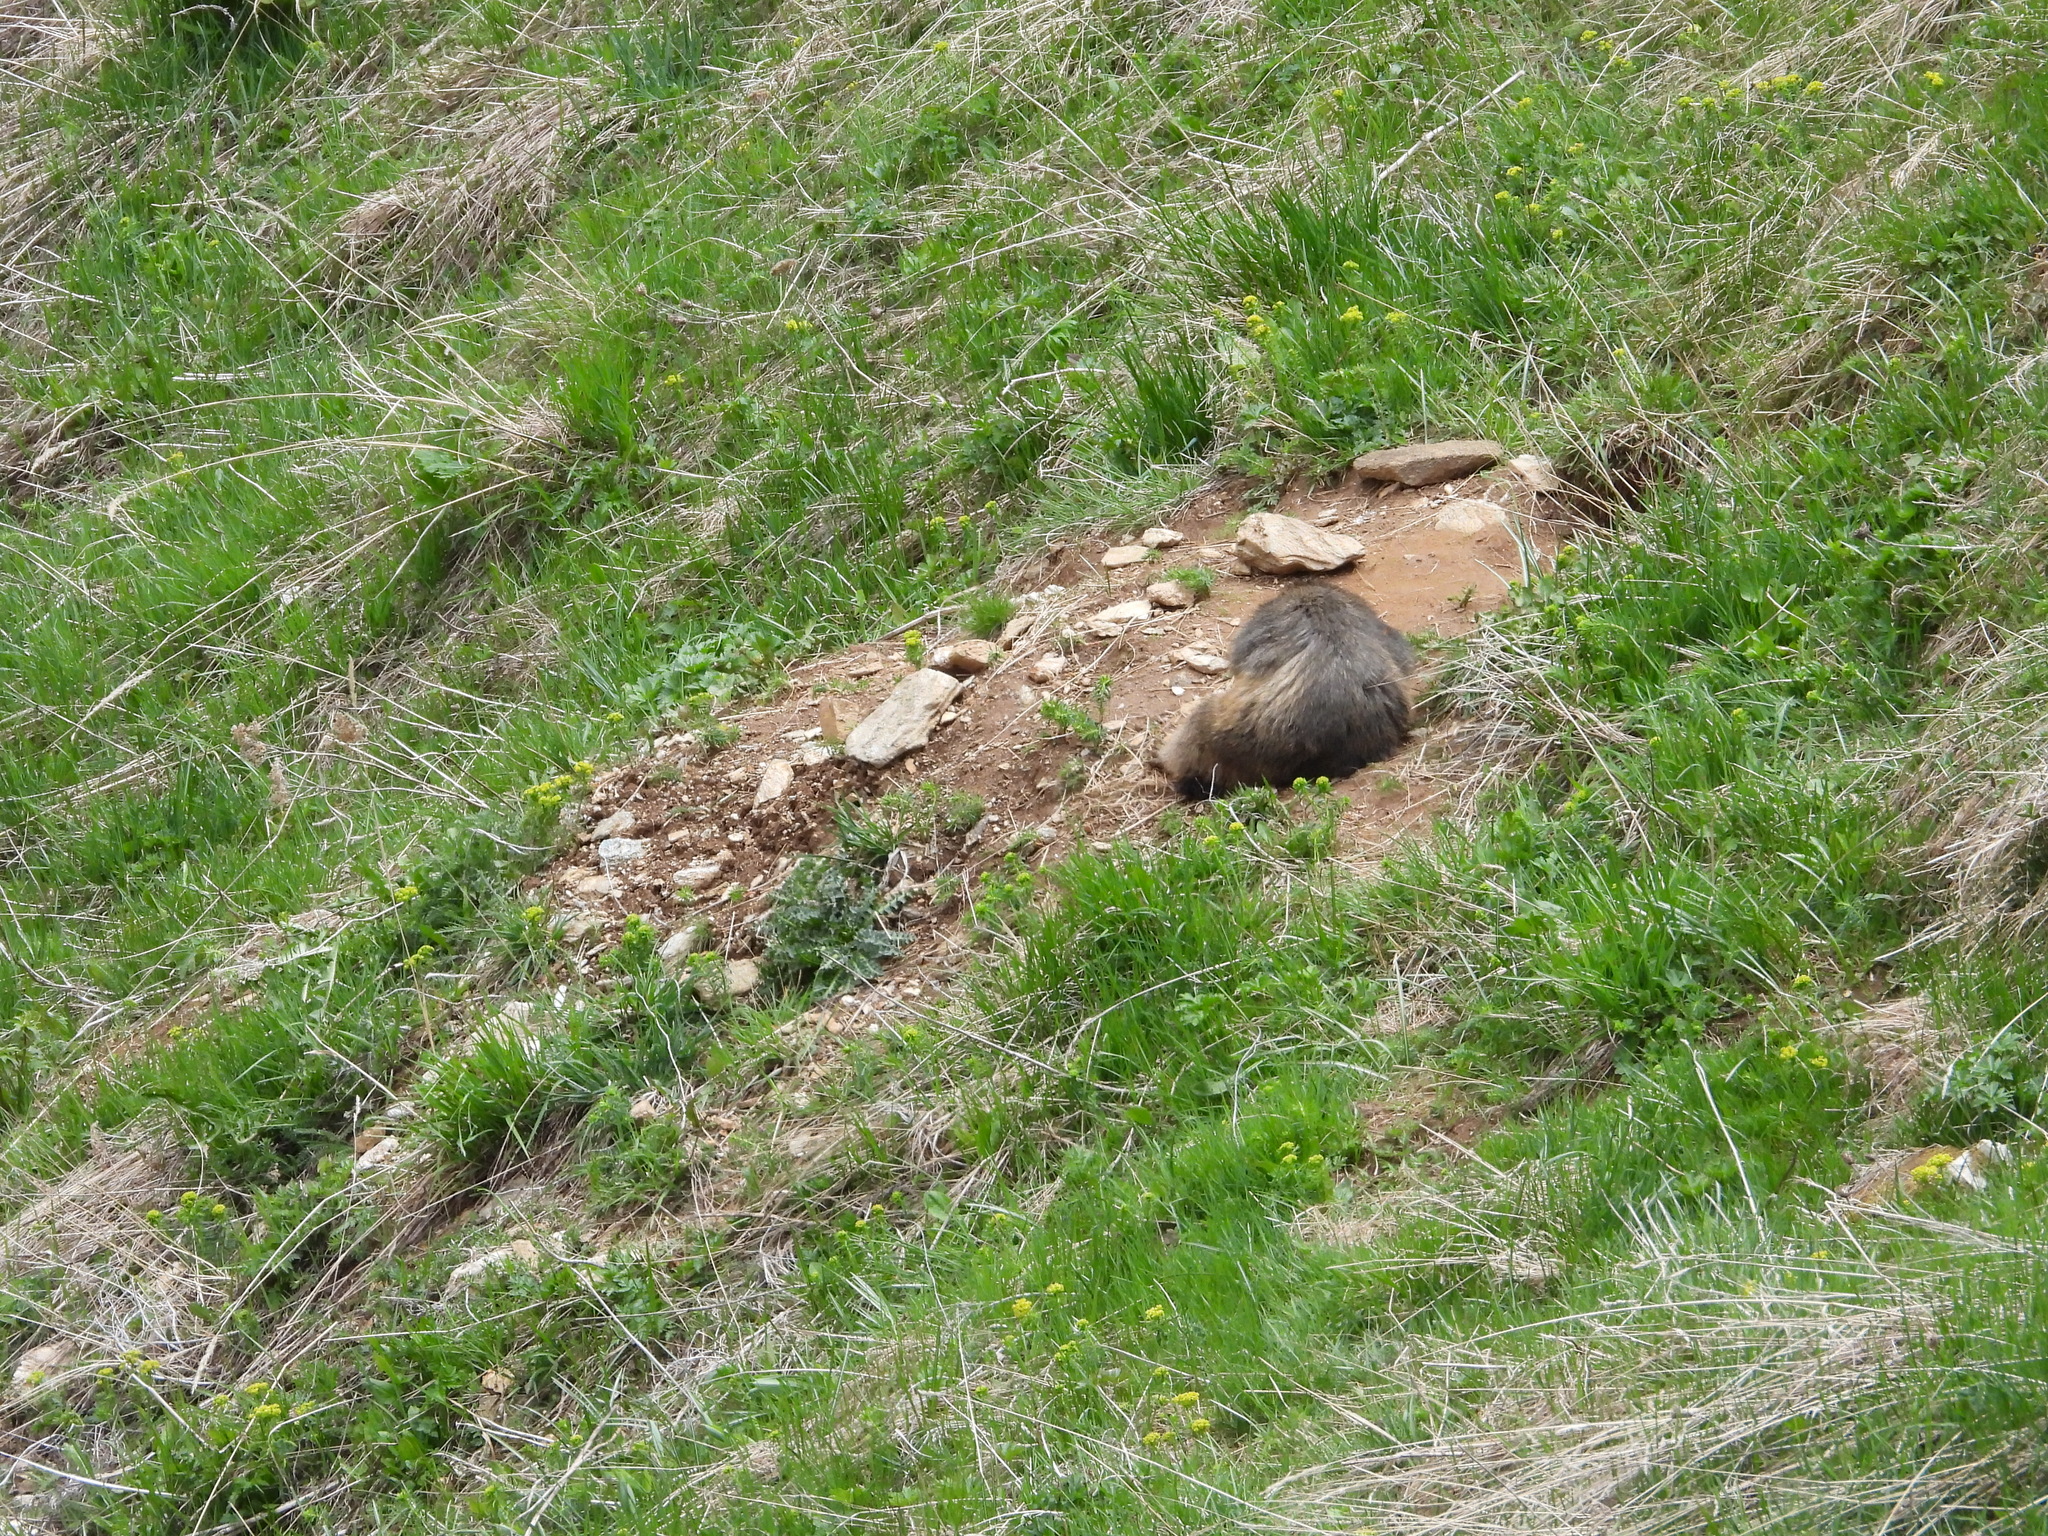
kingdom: Animalia
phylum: Chordata
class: Mammalia
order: Rodentia
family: Sciuridae
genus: Marmota
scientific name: Marmota marmota
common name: Alpine marmot
